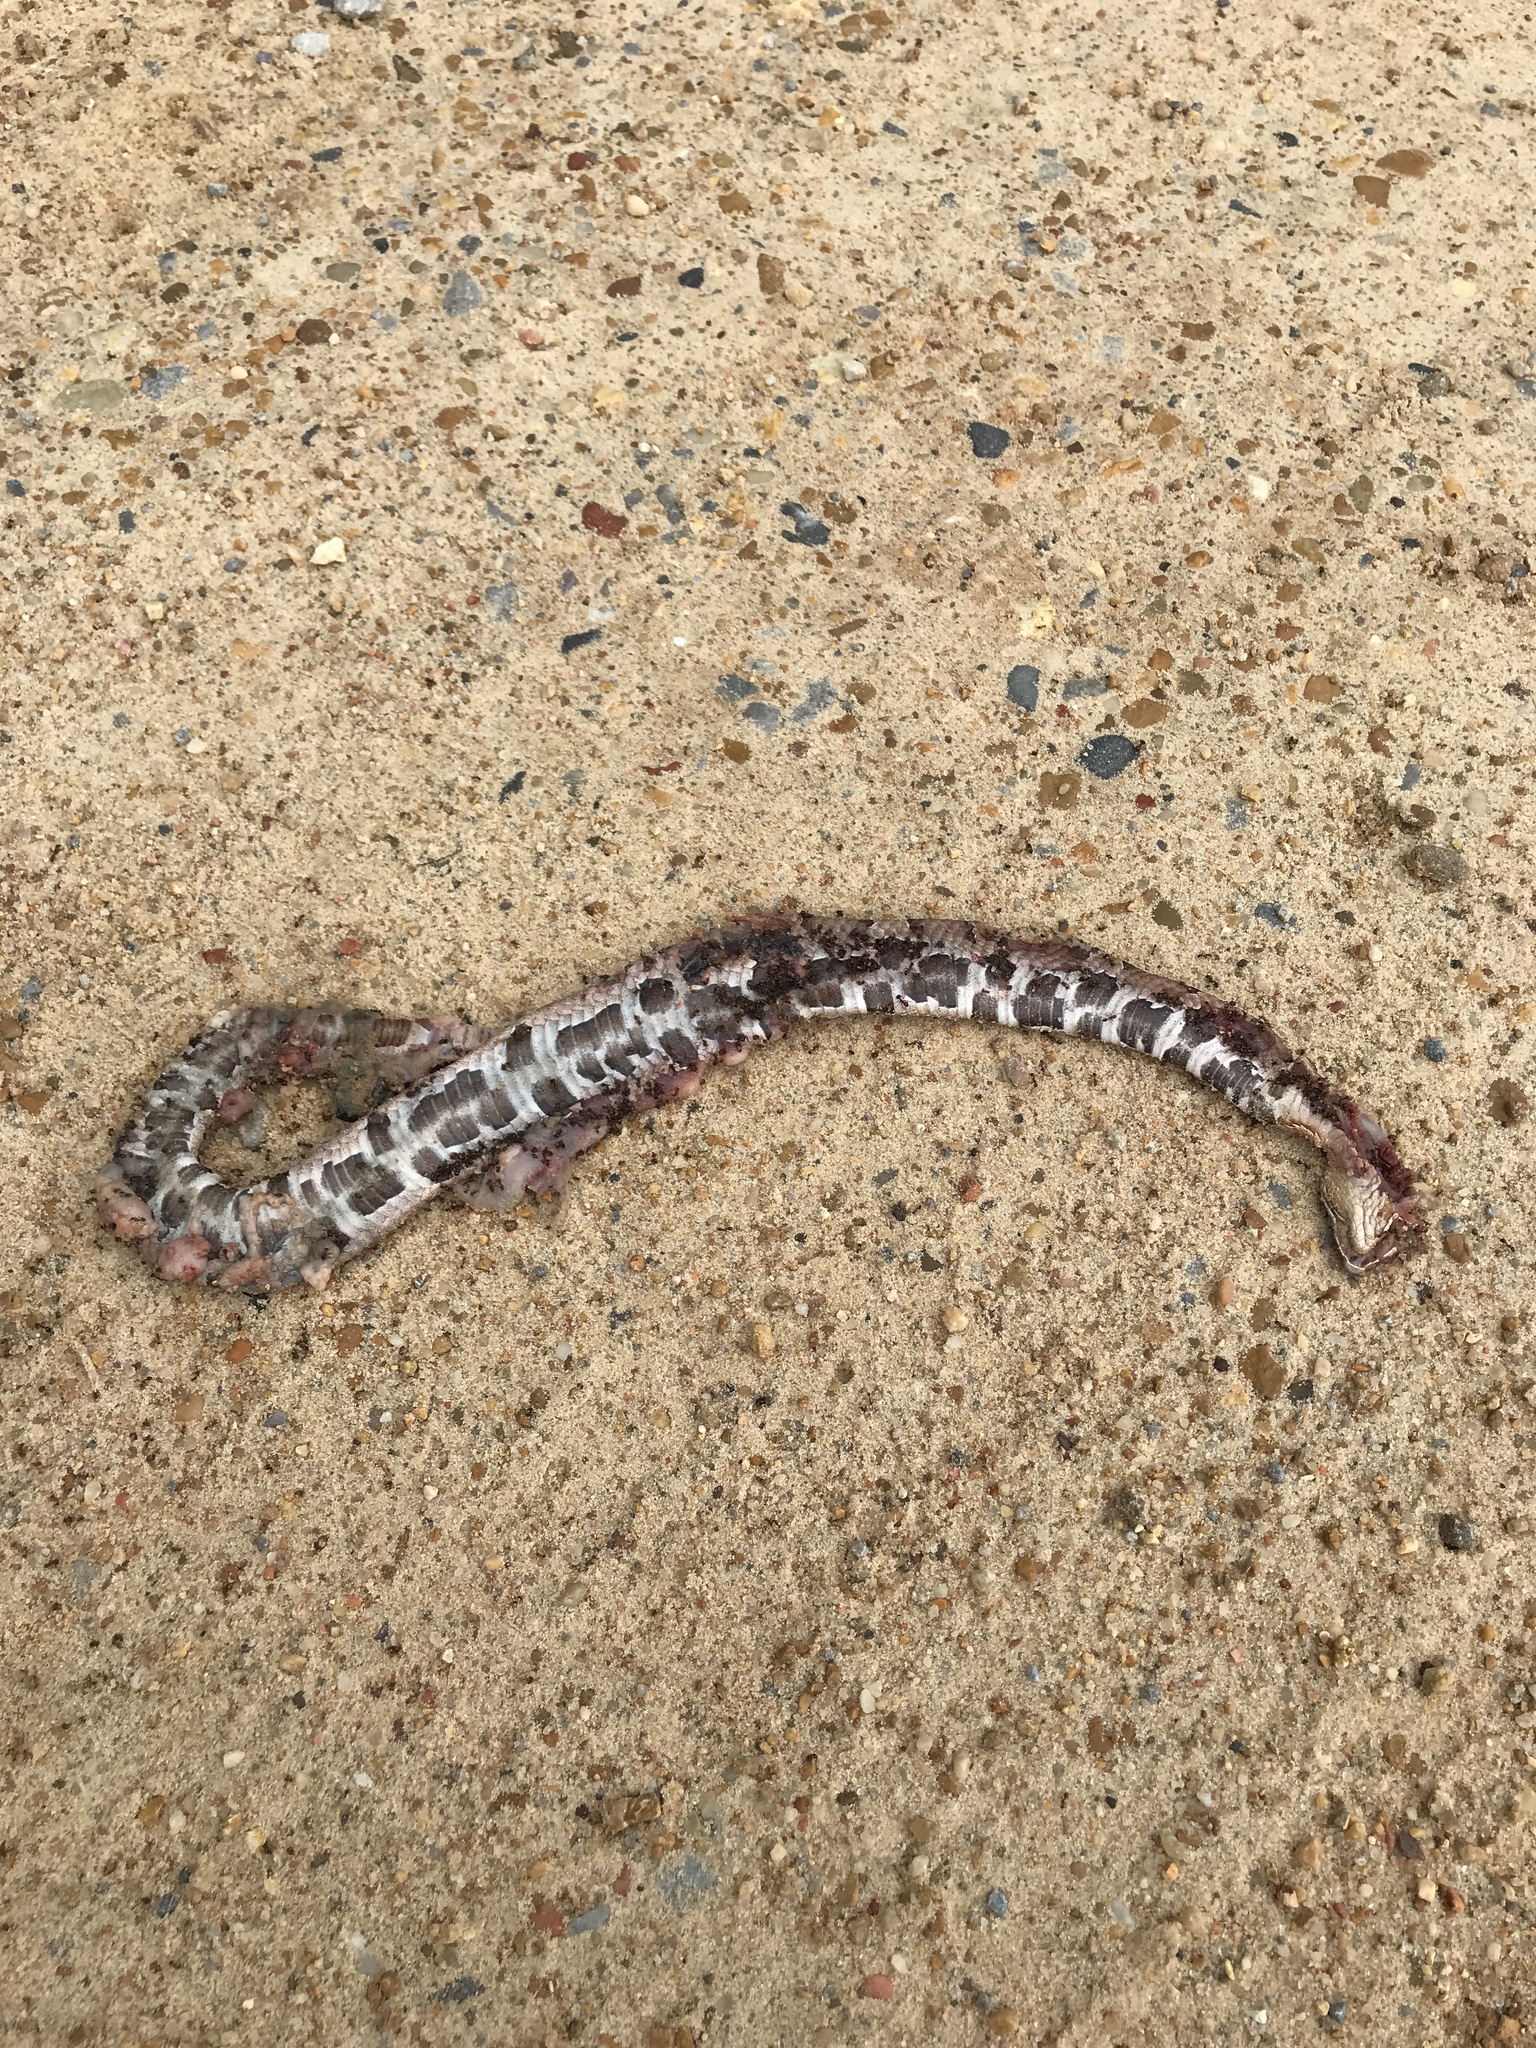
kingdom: Animalia
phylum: Chordata
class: Squamata
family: Viperidae
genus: Agkistrodon
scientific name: Agkistrodon contortrix
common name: Northern copperhead
